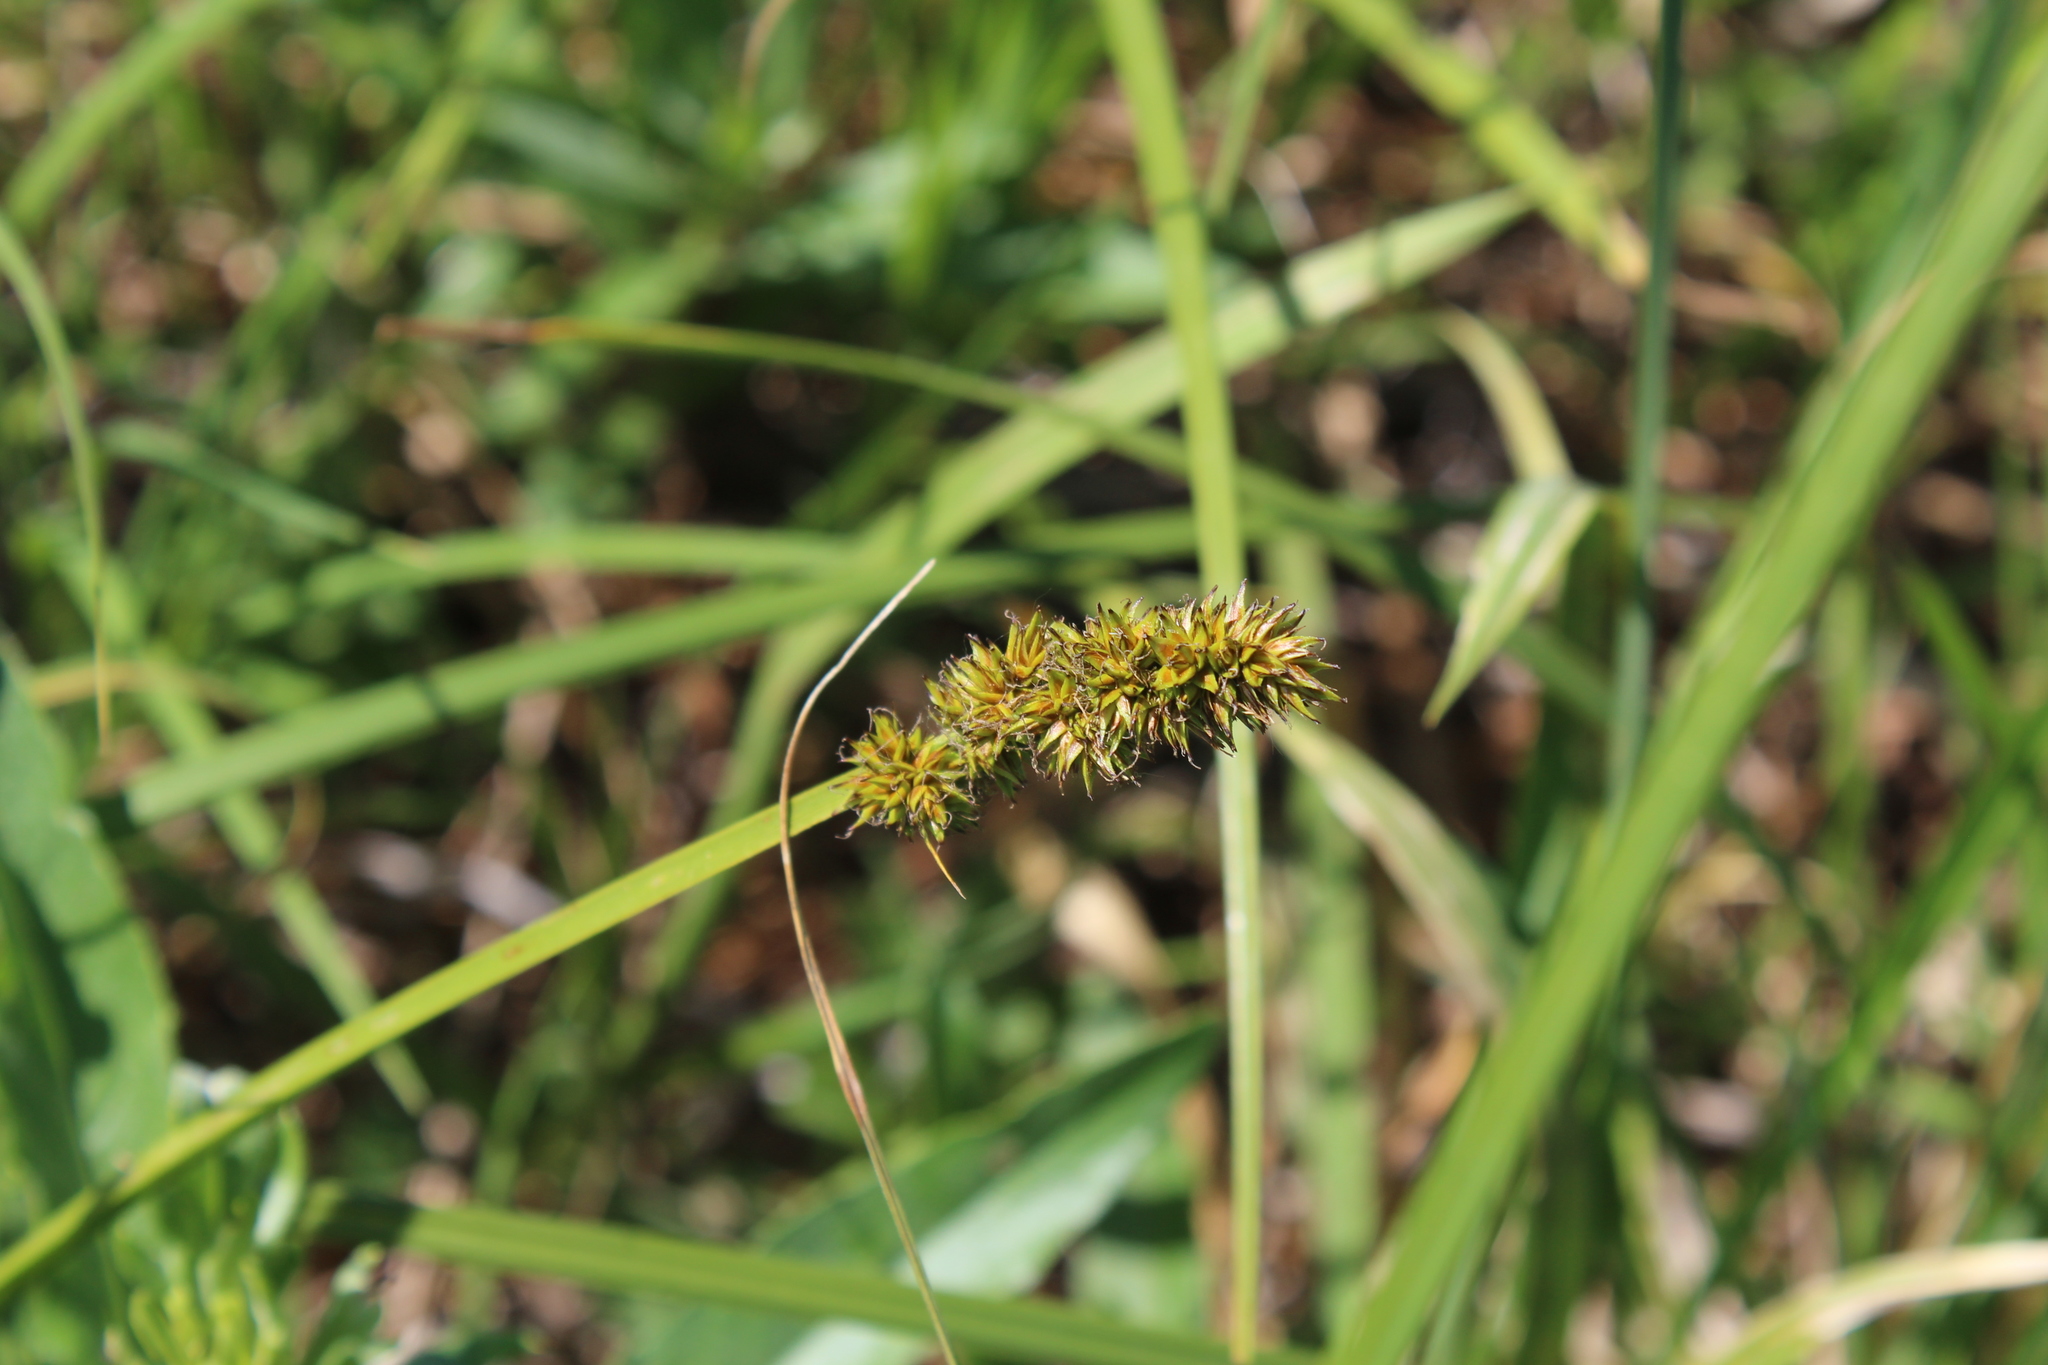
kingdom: Plantae
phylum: Tracheophyta
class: Liliopsida
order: Poales
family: Cyperaceae
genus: Carex
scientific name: Carex vulpina
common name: True fox-sedge
